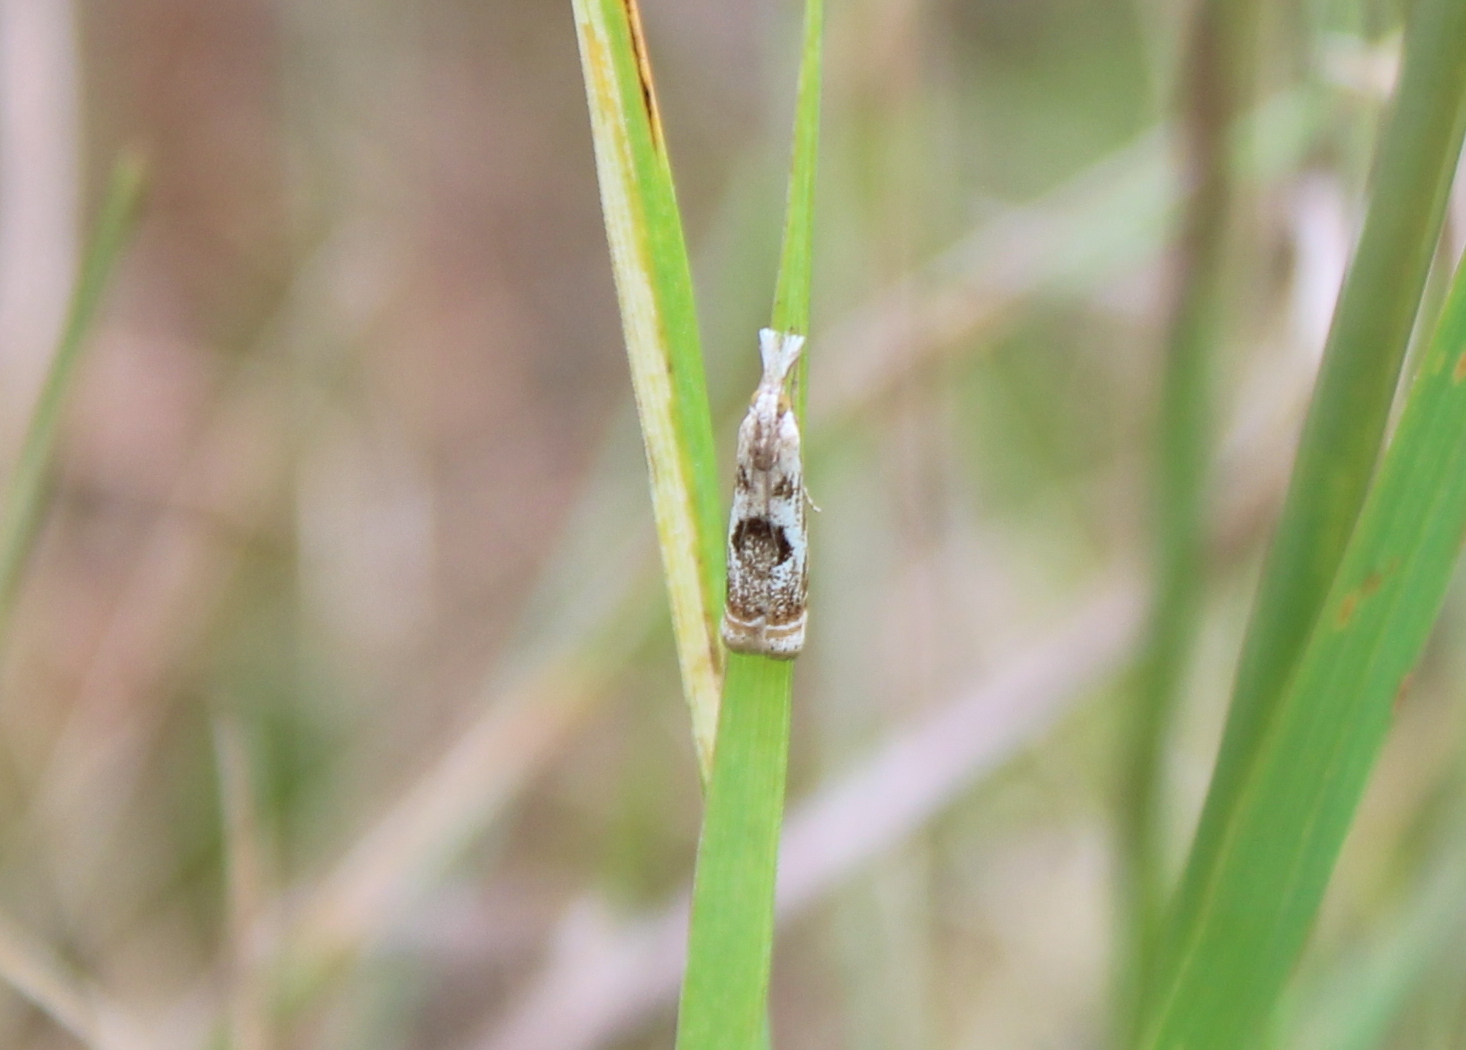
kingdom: Animalia
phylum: Arthropoda
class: Insecta
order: Lepidoptera
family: Crambidae
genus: Microcrambus
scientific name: Microcrambus elegans
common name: Elegant grass-veneer
